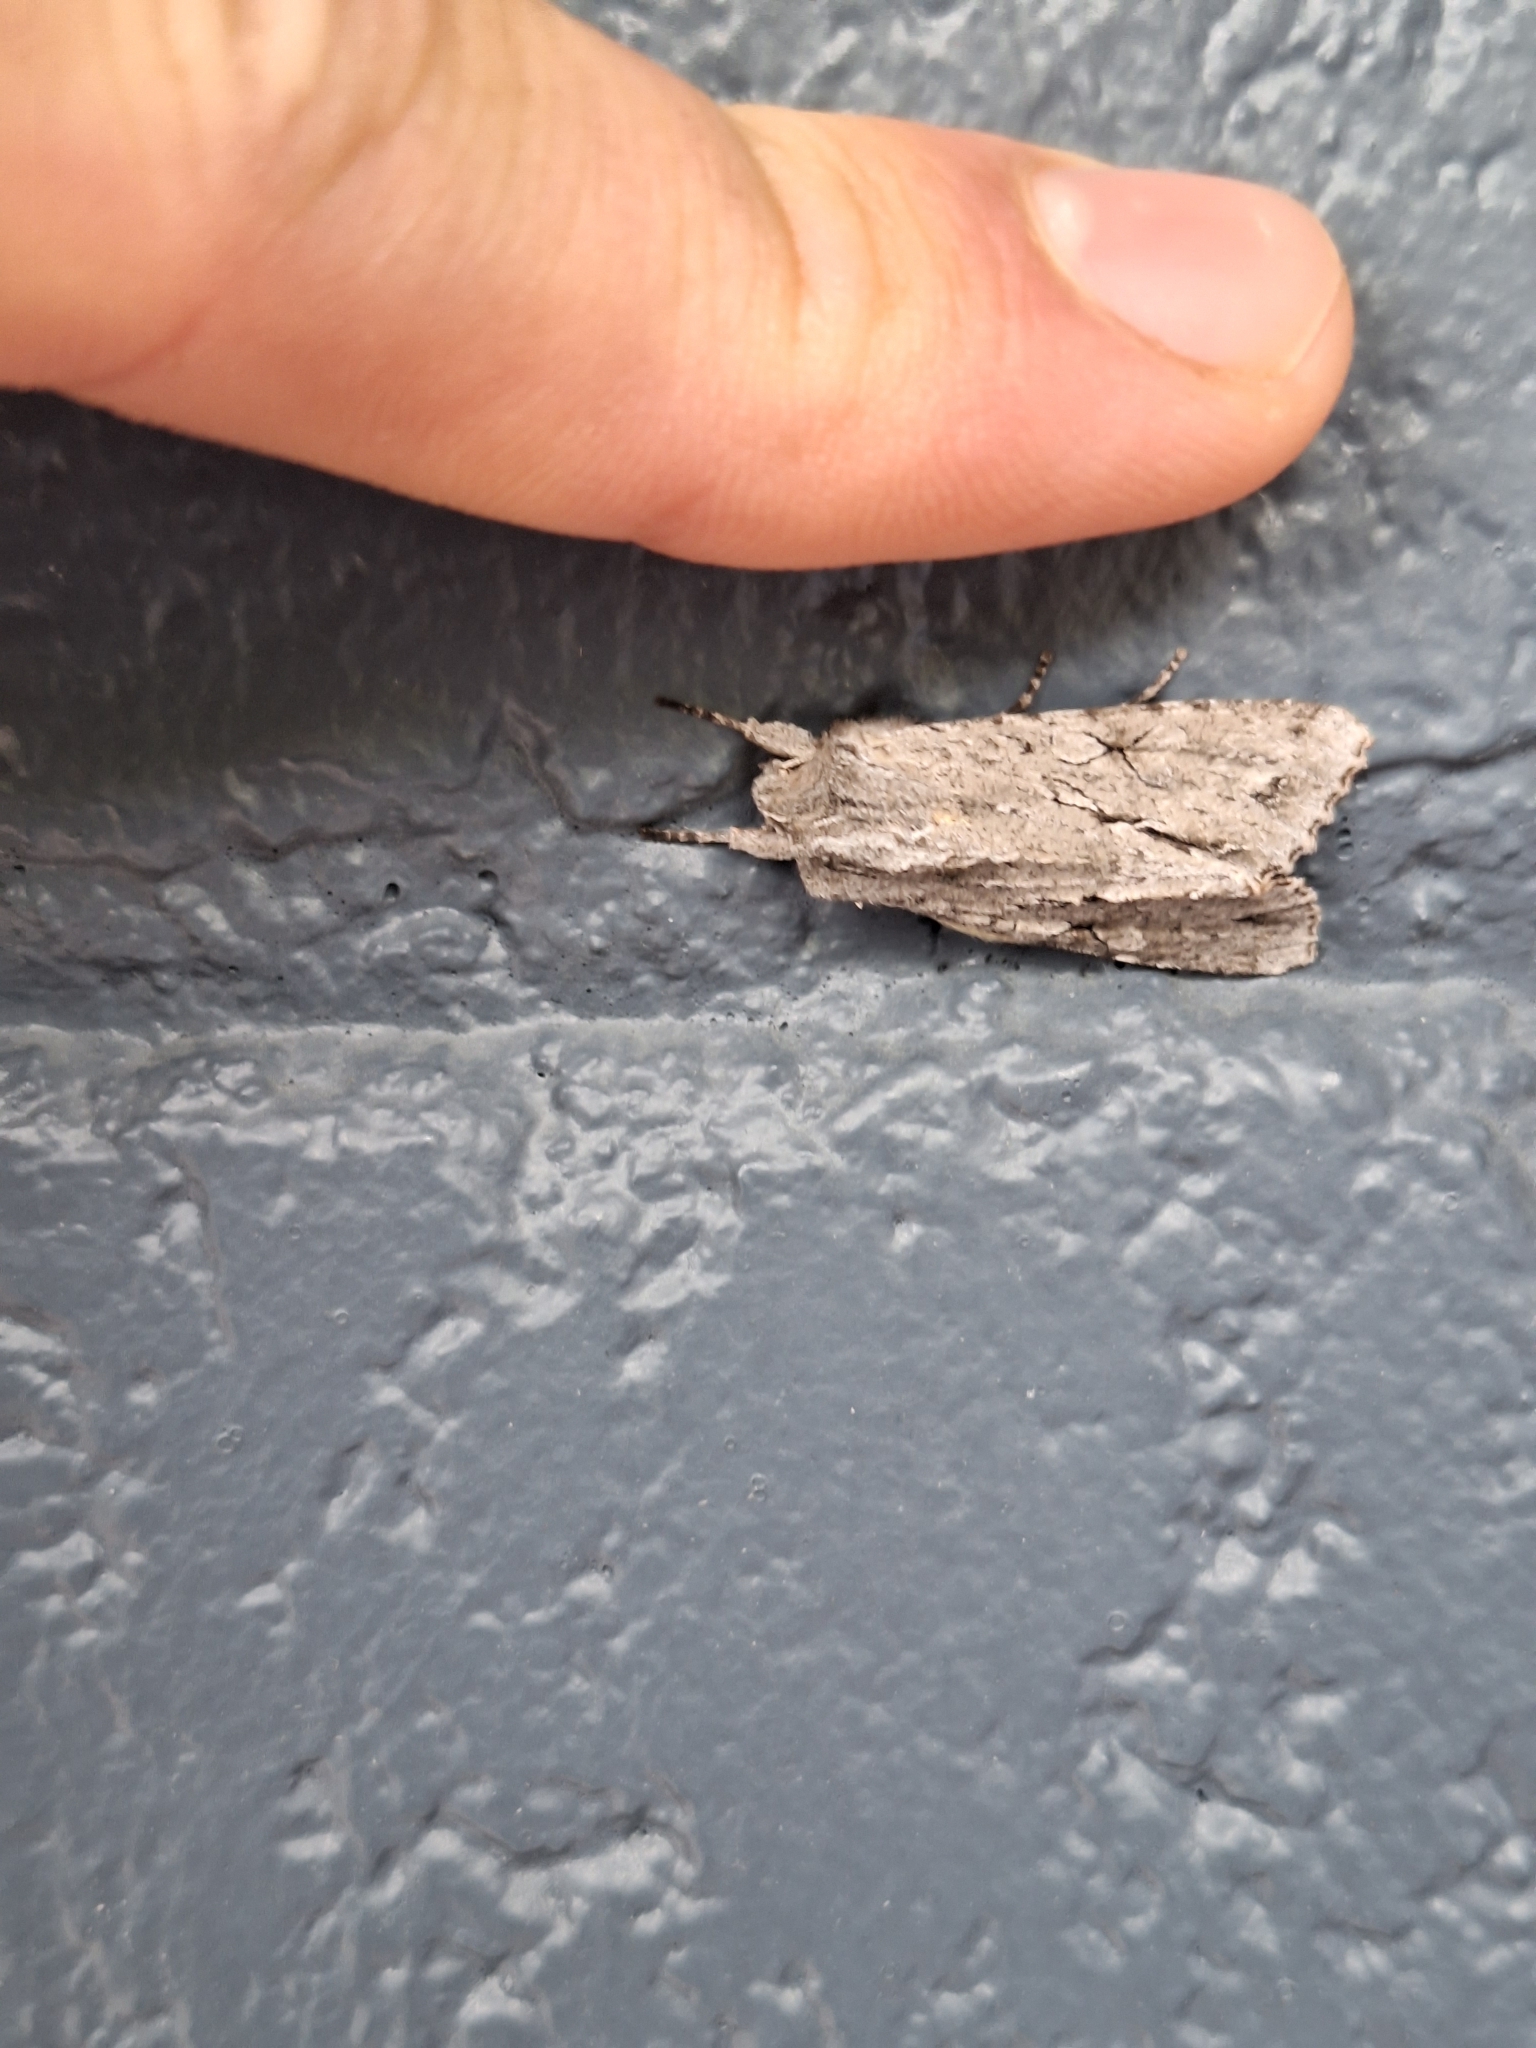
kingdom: Animalia
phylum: Arthropoda
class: Insecta
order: Lepidoptera
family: Noctuidae
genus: Ichneutica
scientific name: Ichneutica
